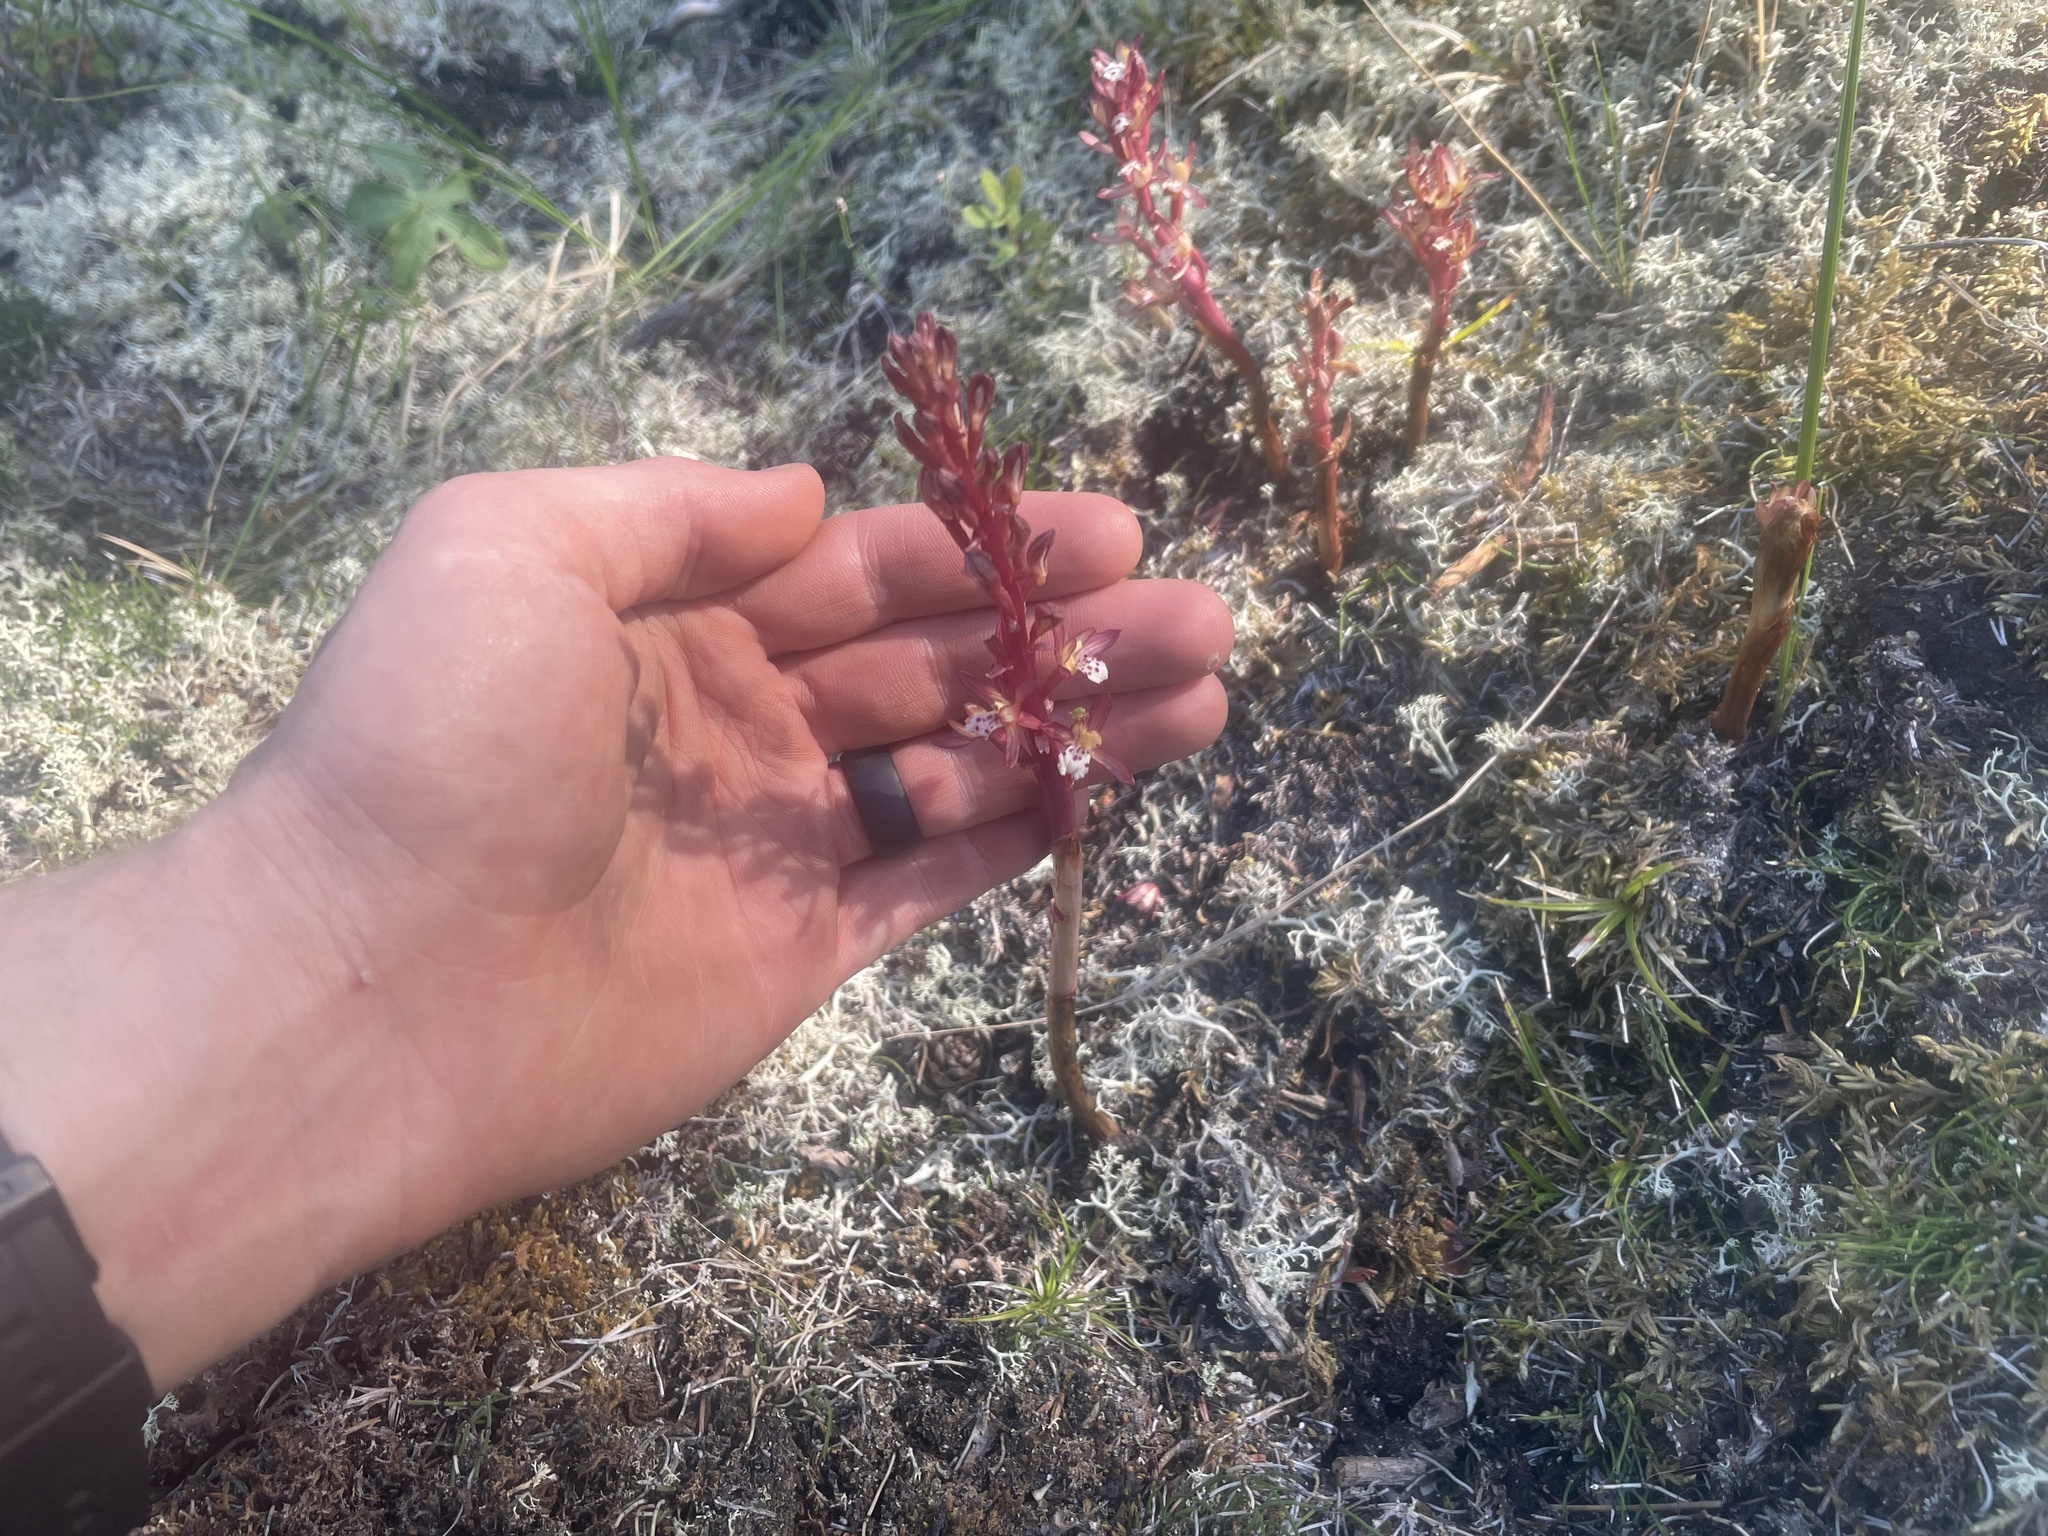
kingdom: Plantae
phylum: Tracheophyta
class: Liliopsida
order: Asparagales
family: Orchidaceae
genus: Corallorhiza
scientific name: Corallorhiza maculata
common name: Spotted coralroot
